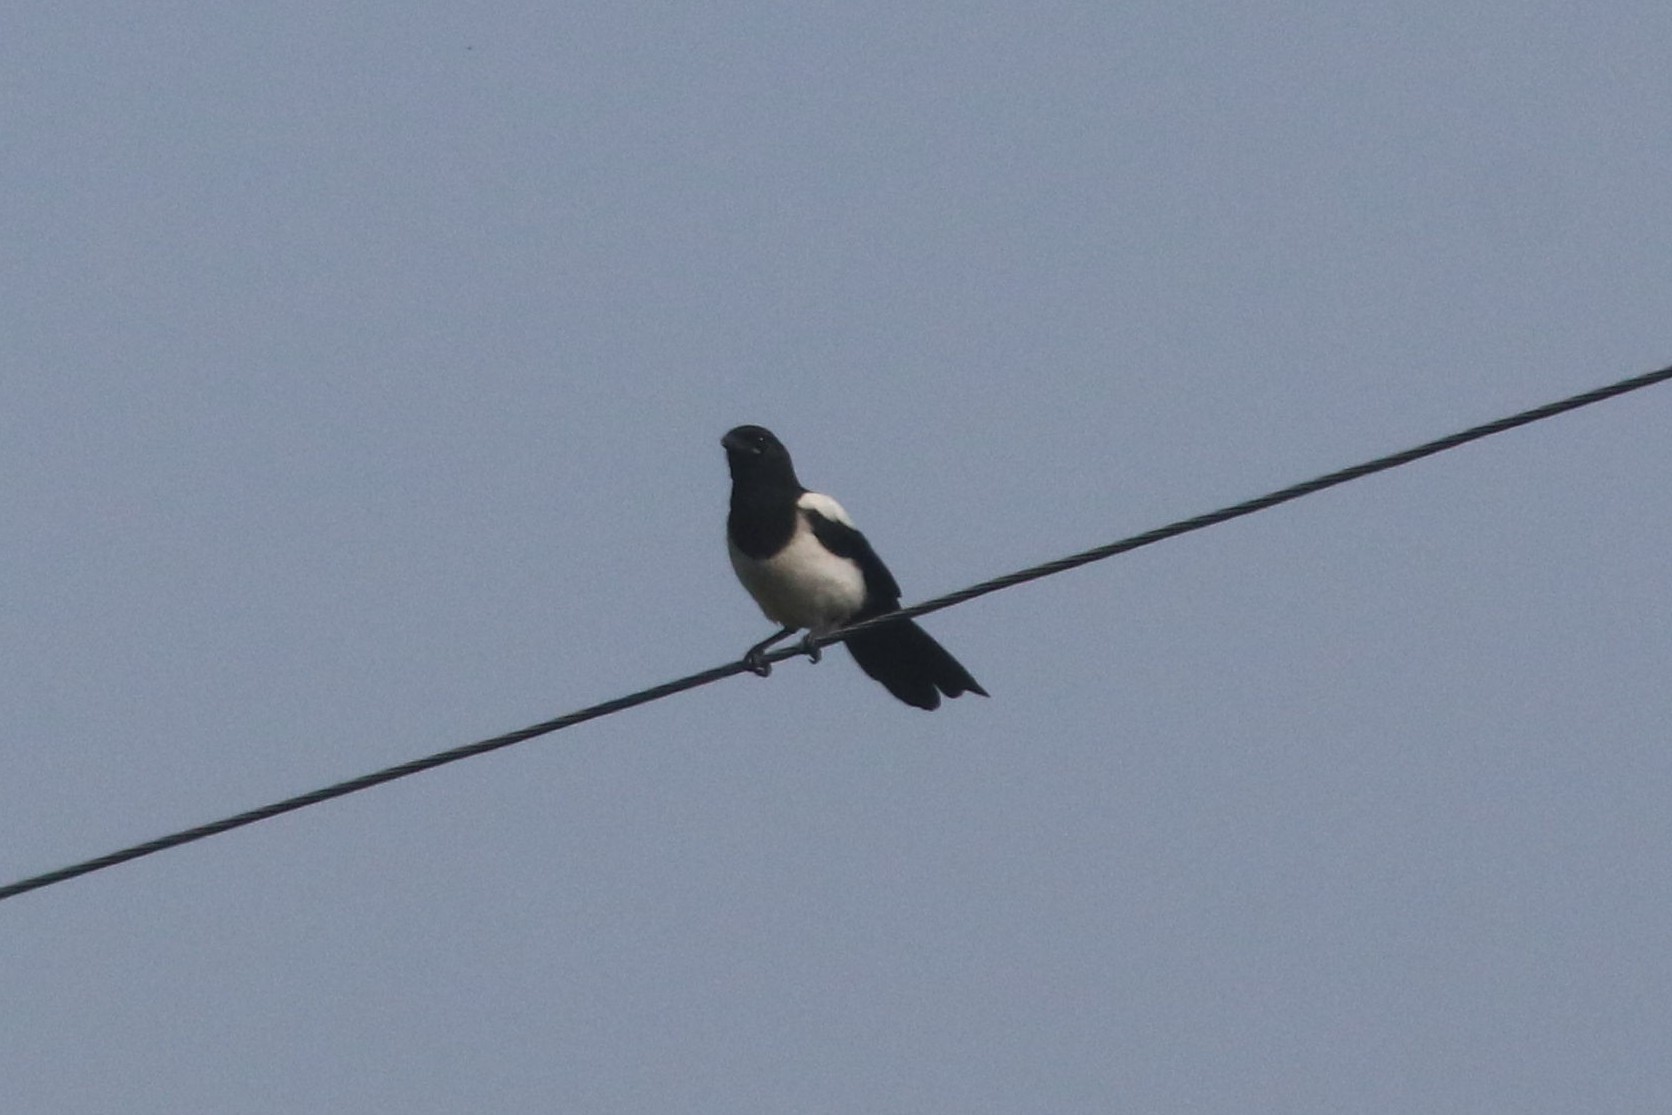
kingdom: Animalia
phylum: Chordata
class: Aves
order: Passeriformes
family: Corvidae
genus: Pica
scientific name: Pica pica
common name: Eurasian magpie
